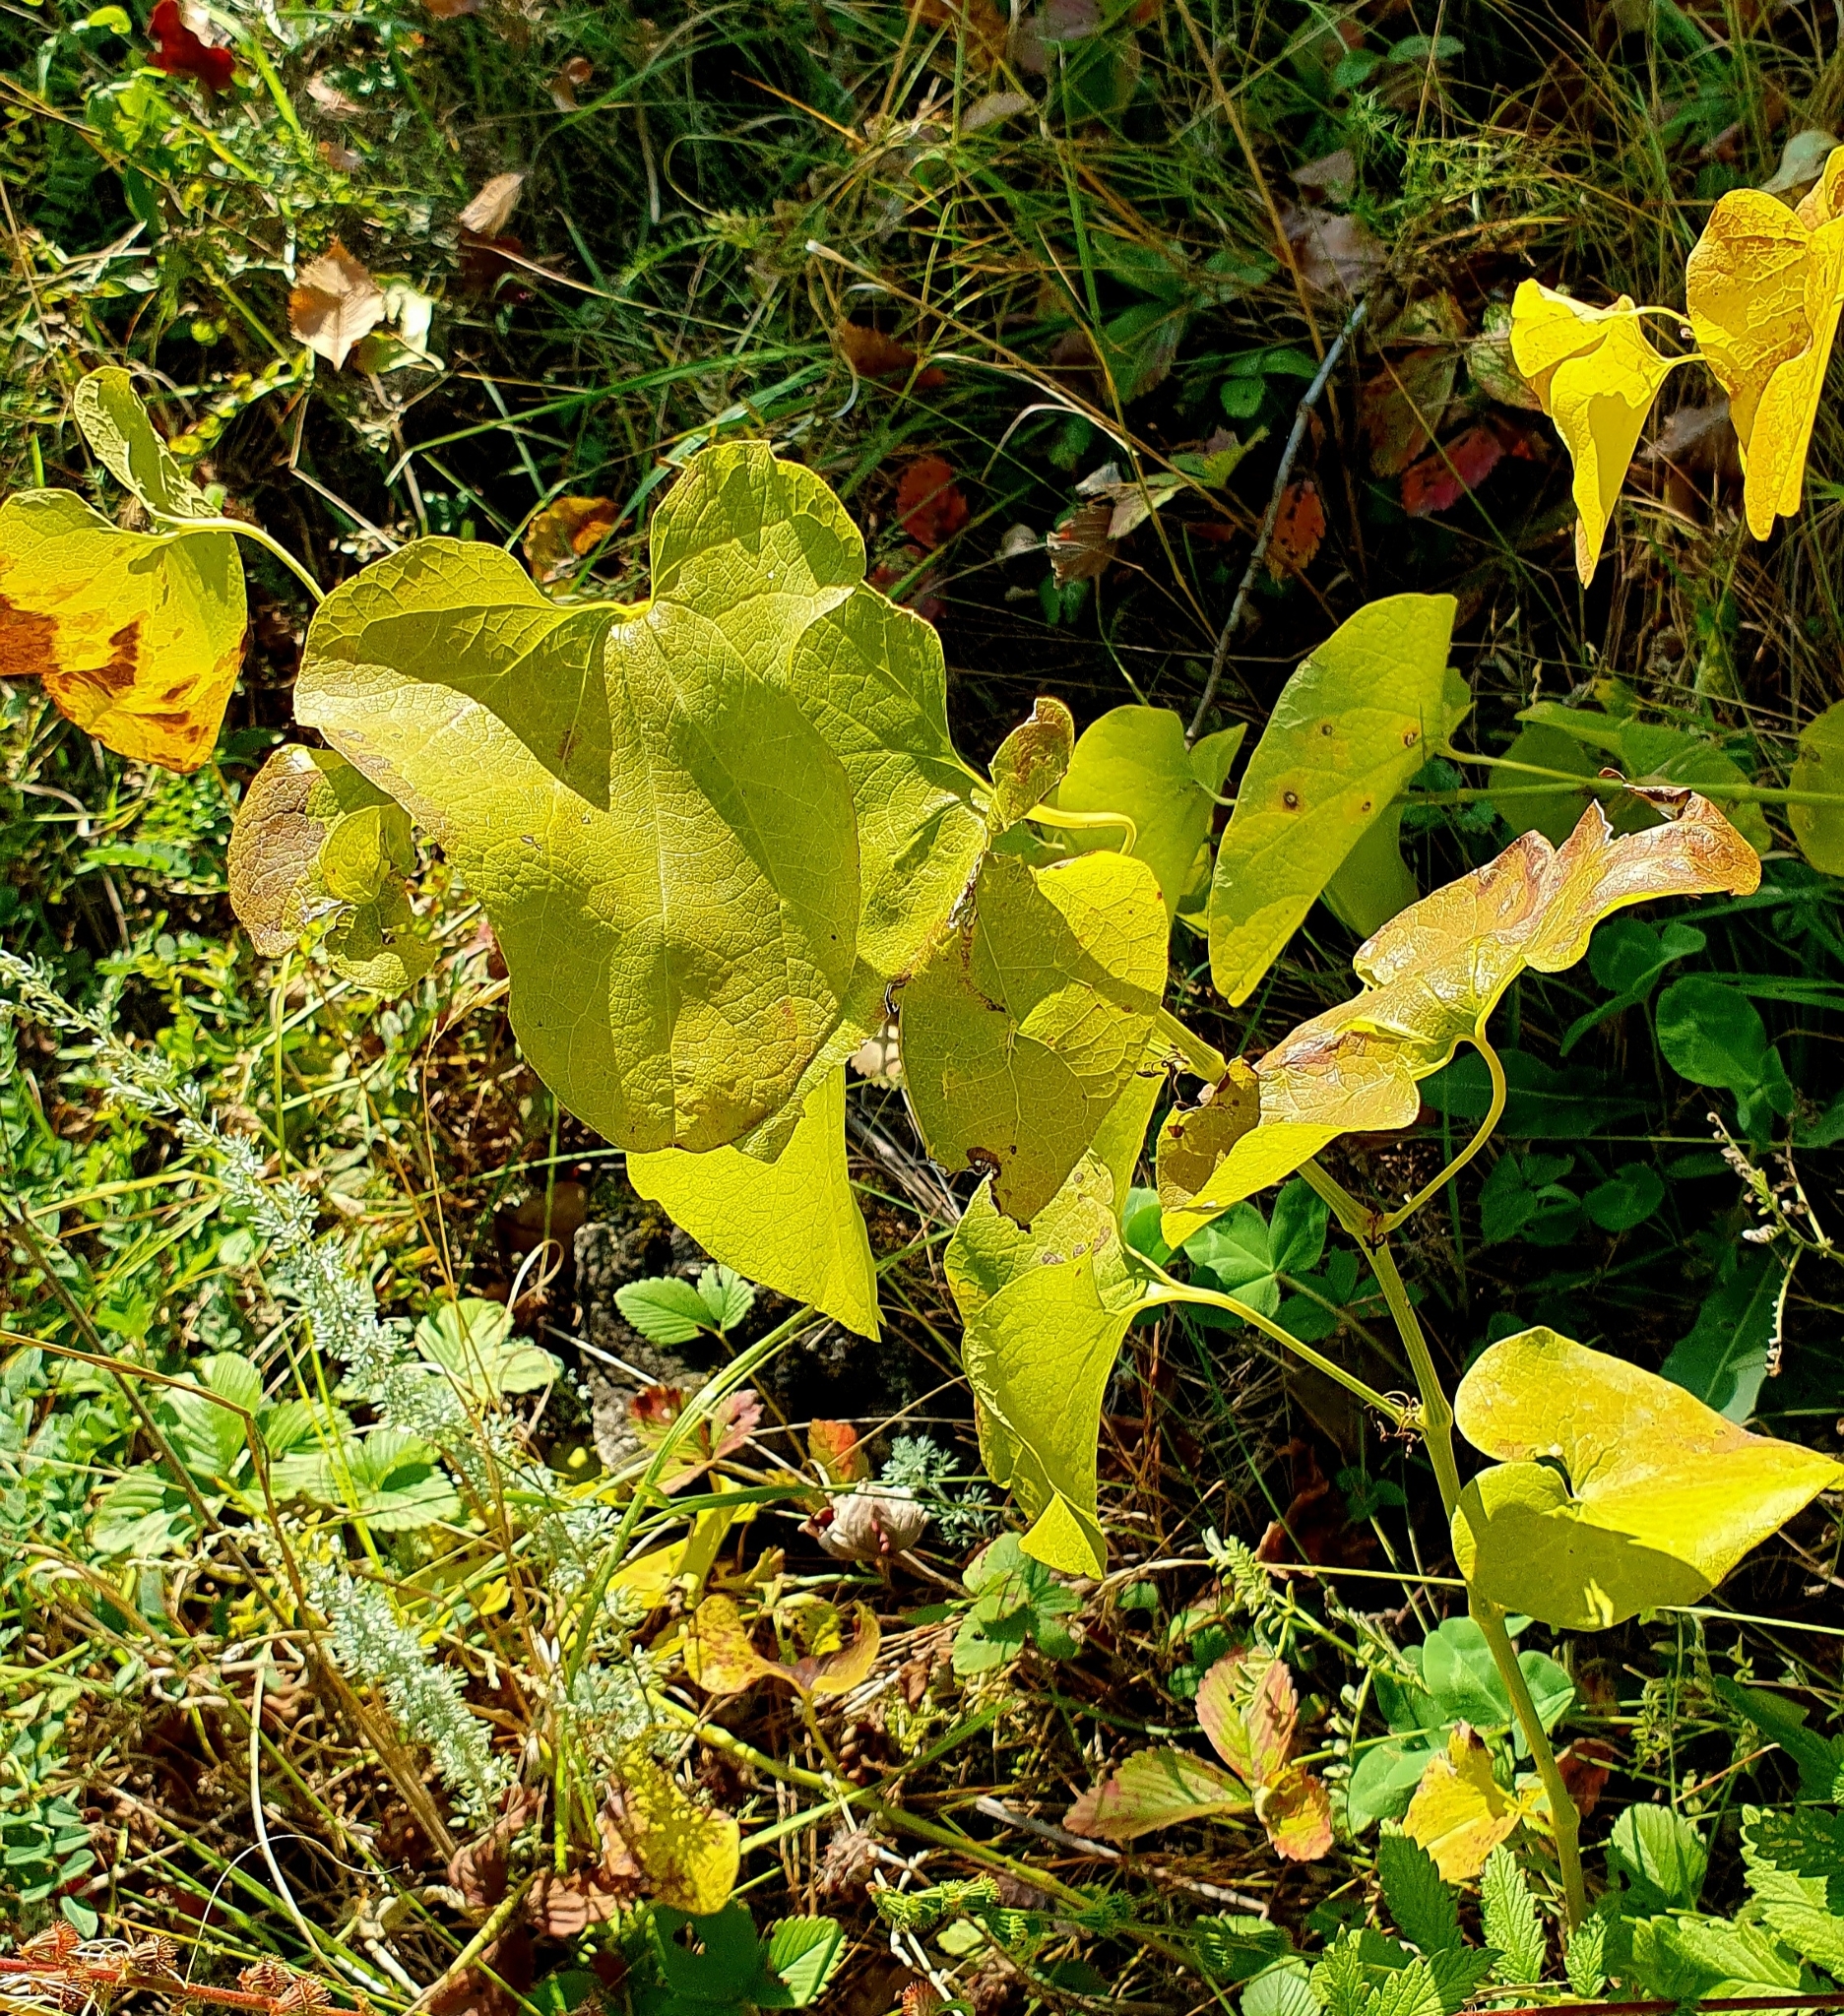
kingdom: Plantae
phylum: Tracheophyta
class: Magnoliopsida
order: Piperales
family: Aristolochiaceae
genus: Aristolochia
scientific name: Aristolochia clematitis
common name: Birthwort
